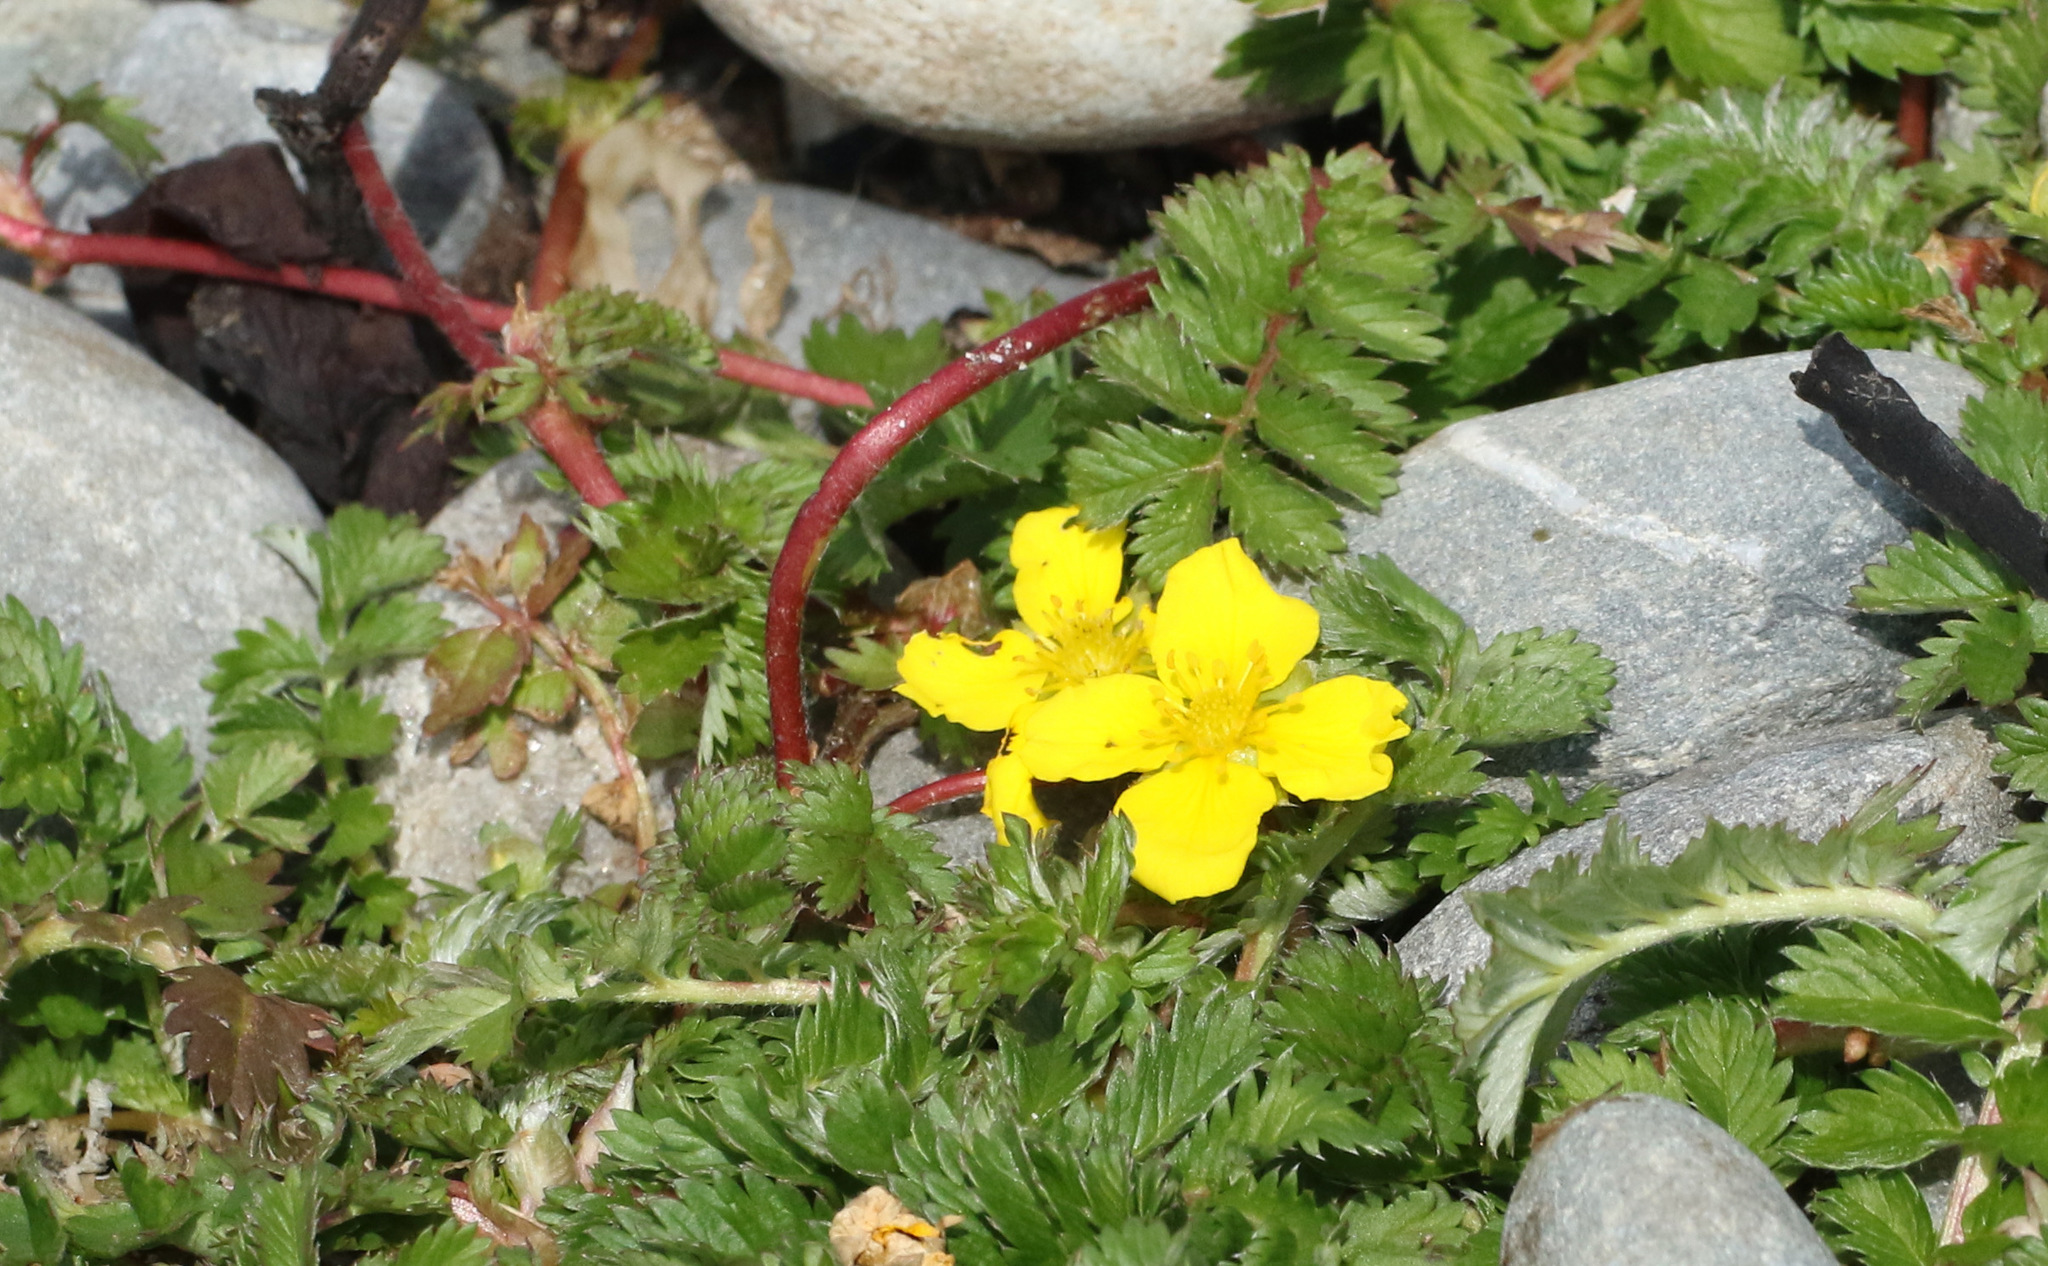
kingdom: Plantae
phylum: Tracheophyta
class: Magnoliopsida
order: Rosales
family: Rosaceae
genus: Argentina
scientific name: Argentina anserina
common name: Common silverweed
